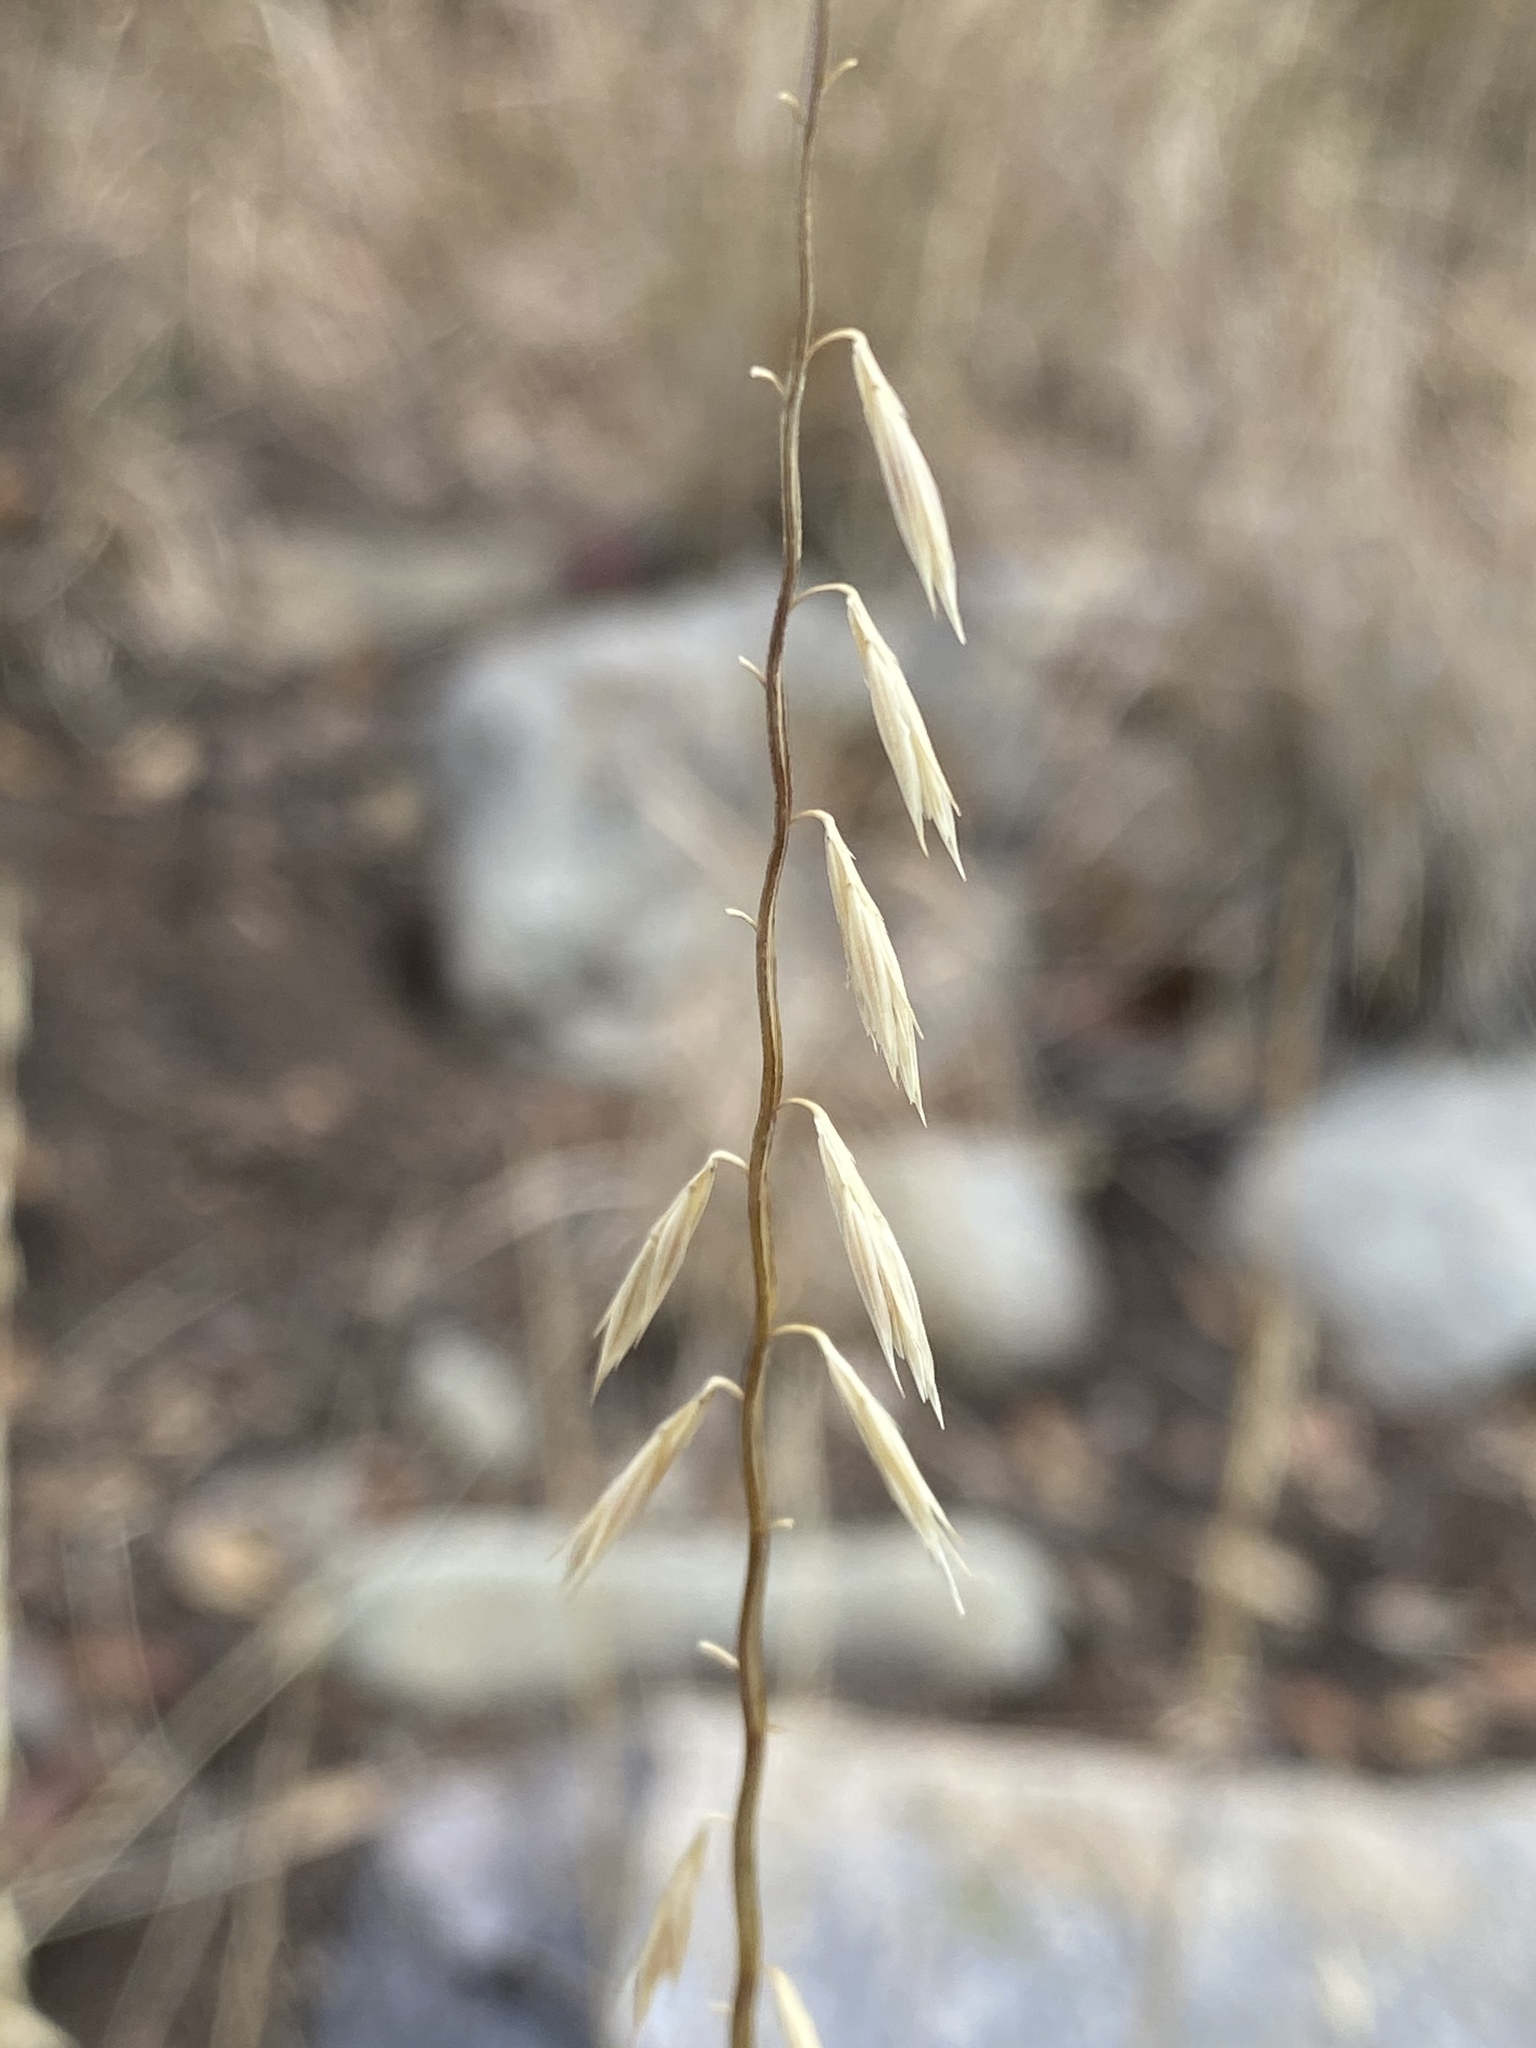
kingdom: Plantae
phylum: Tracheophyta
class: Liliopsida
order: Poales
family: Poaceae
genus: Bouteloua
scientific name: Bouteloua curtipendula
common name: Side-oats grama
